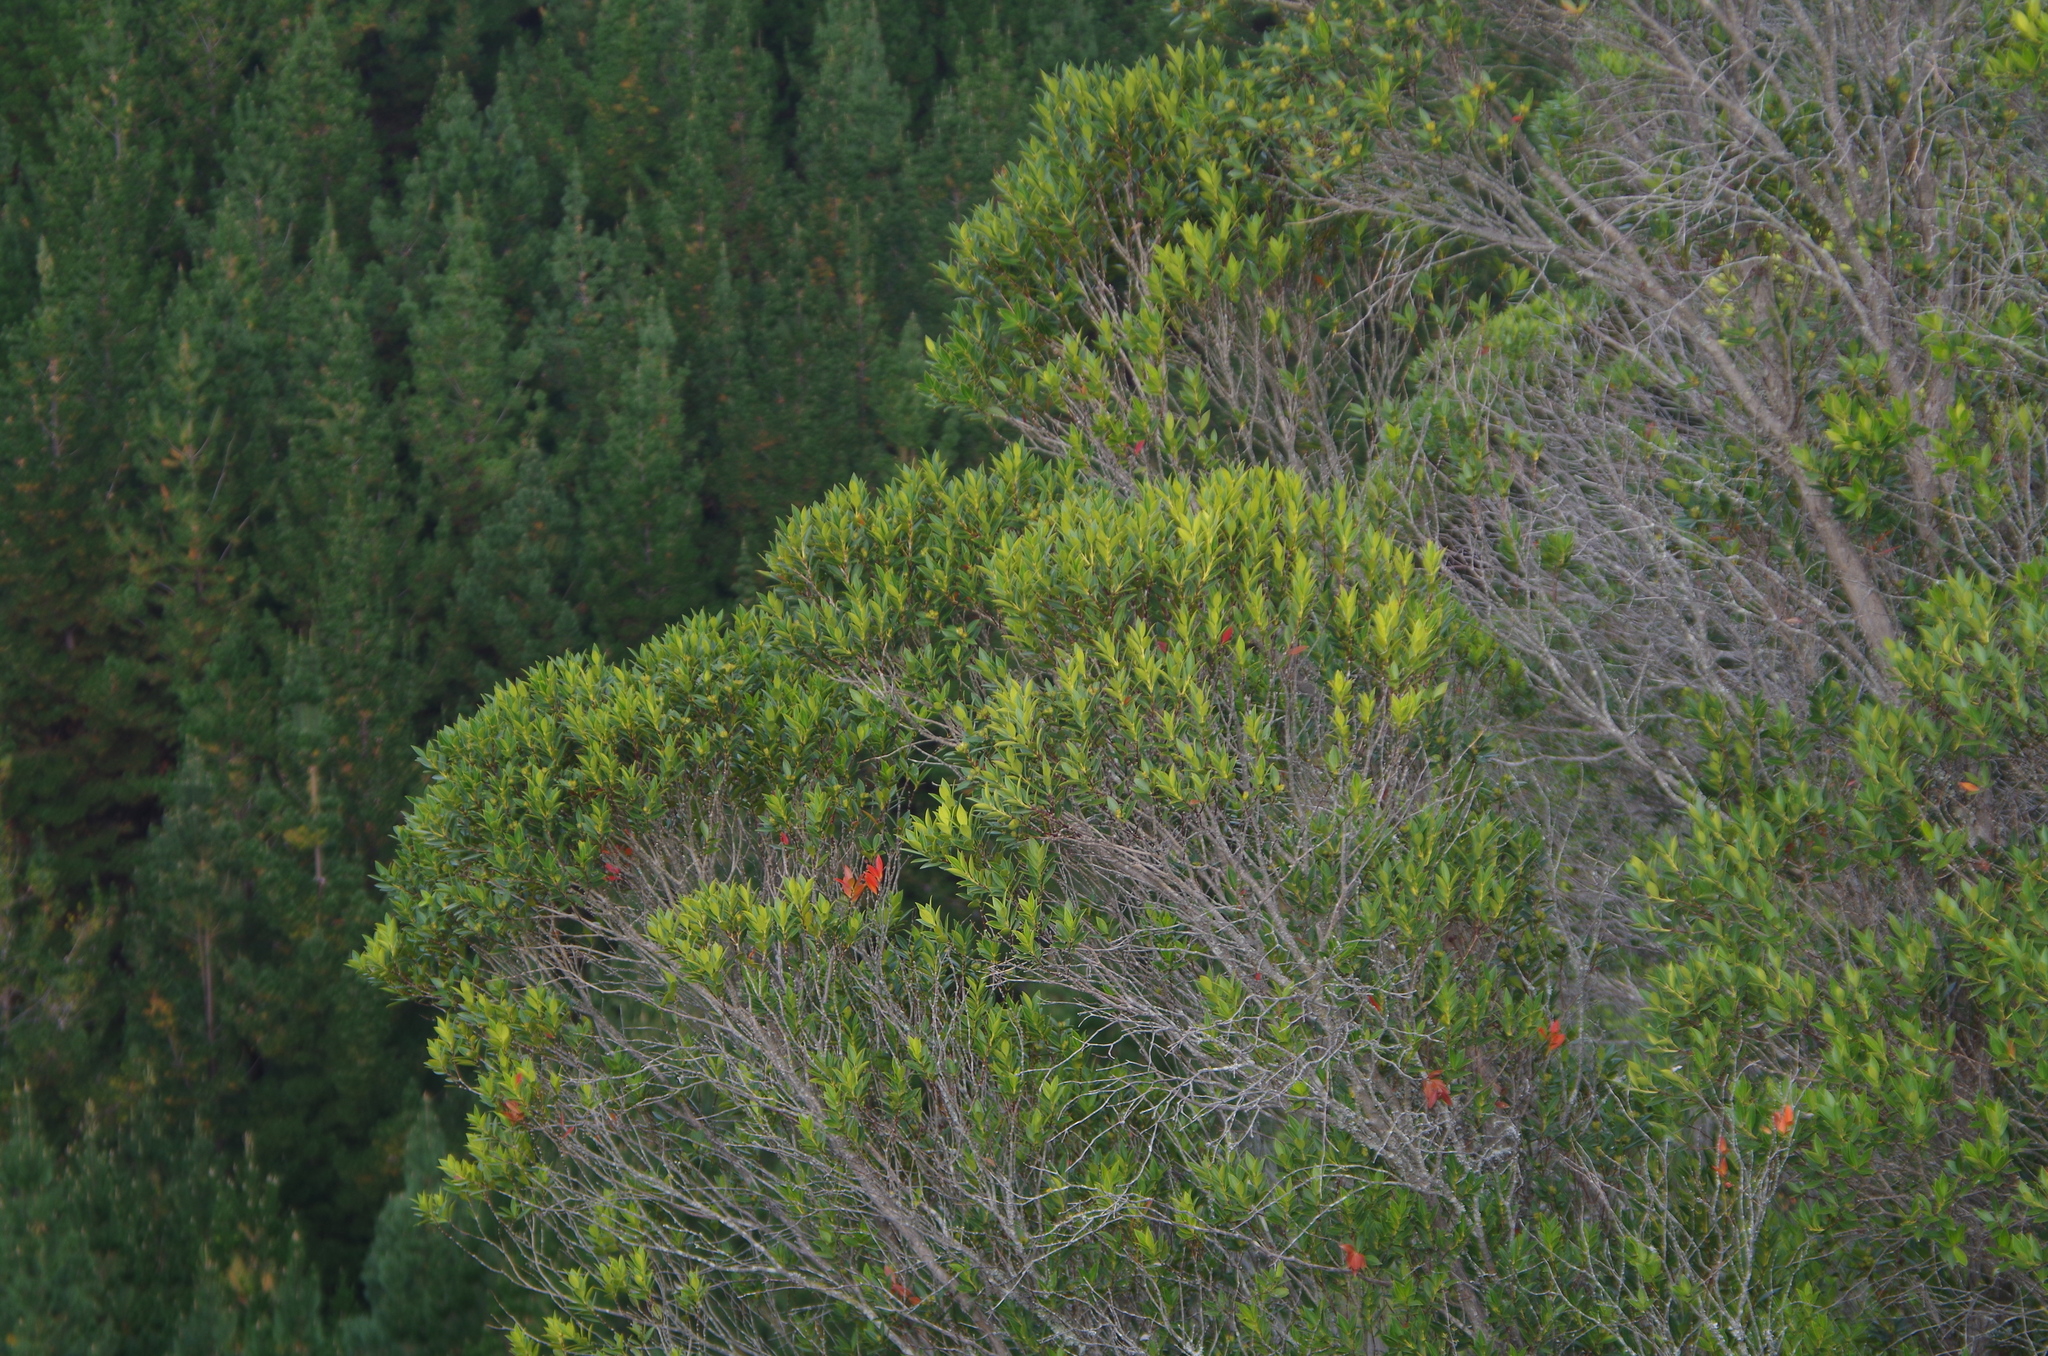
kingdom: Plantae
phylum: Tracheophyta
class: Magnoliopsida
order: Myrtales
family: Myrtaceae
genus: Metrosideros
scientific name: Metrosideros umbellata
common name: Southern rata
